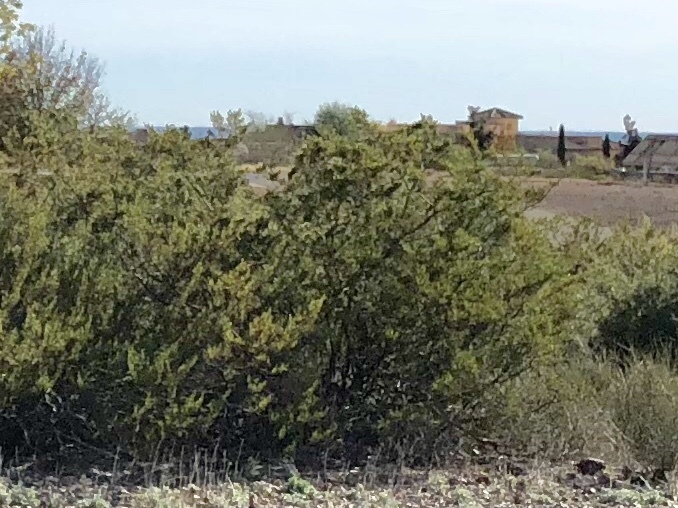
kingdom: Plantae
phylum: Tracheophyta
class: Magnoliopsida
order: Zygophyllales
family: Zygophyllaceae
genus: Larrea
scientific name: Larrea tridentata
